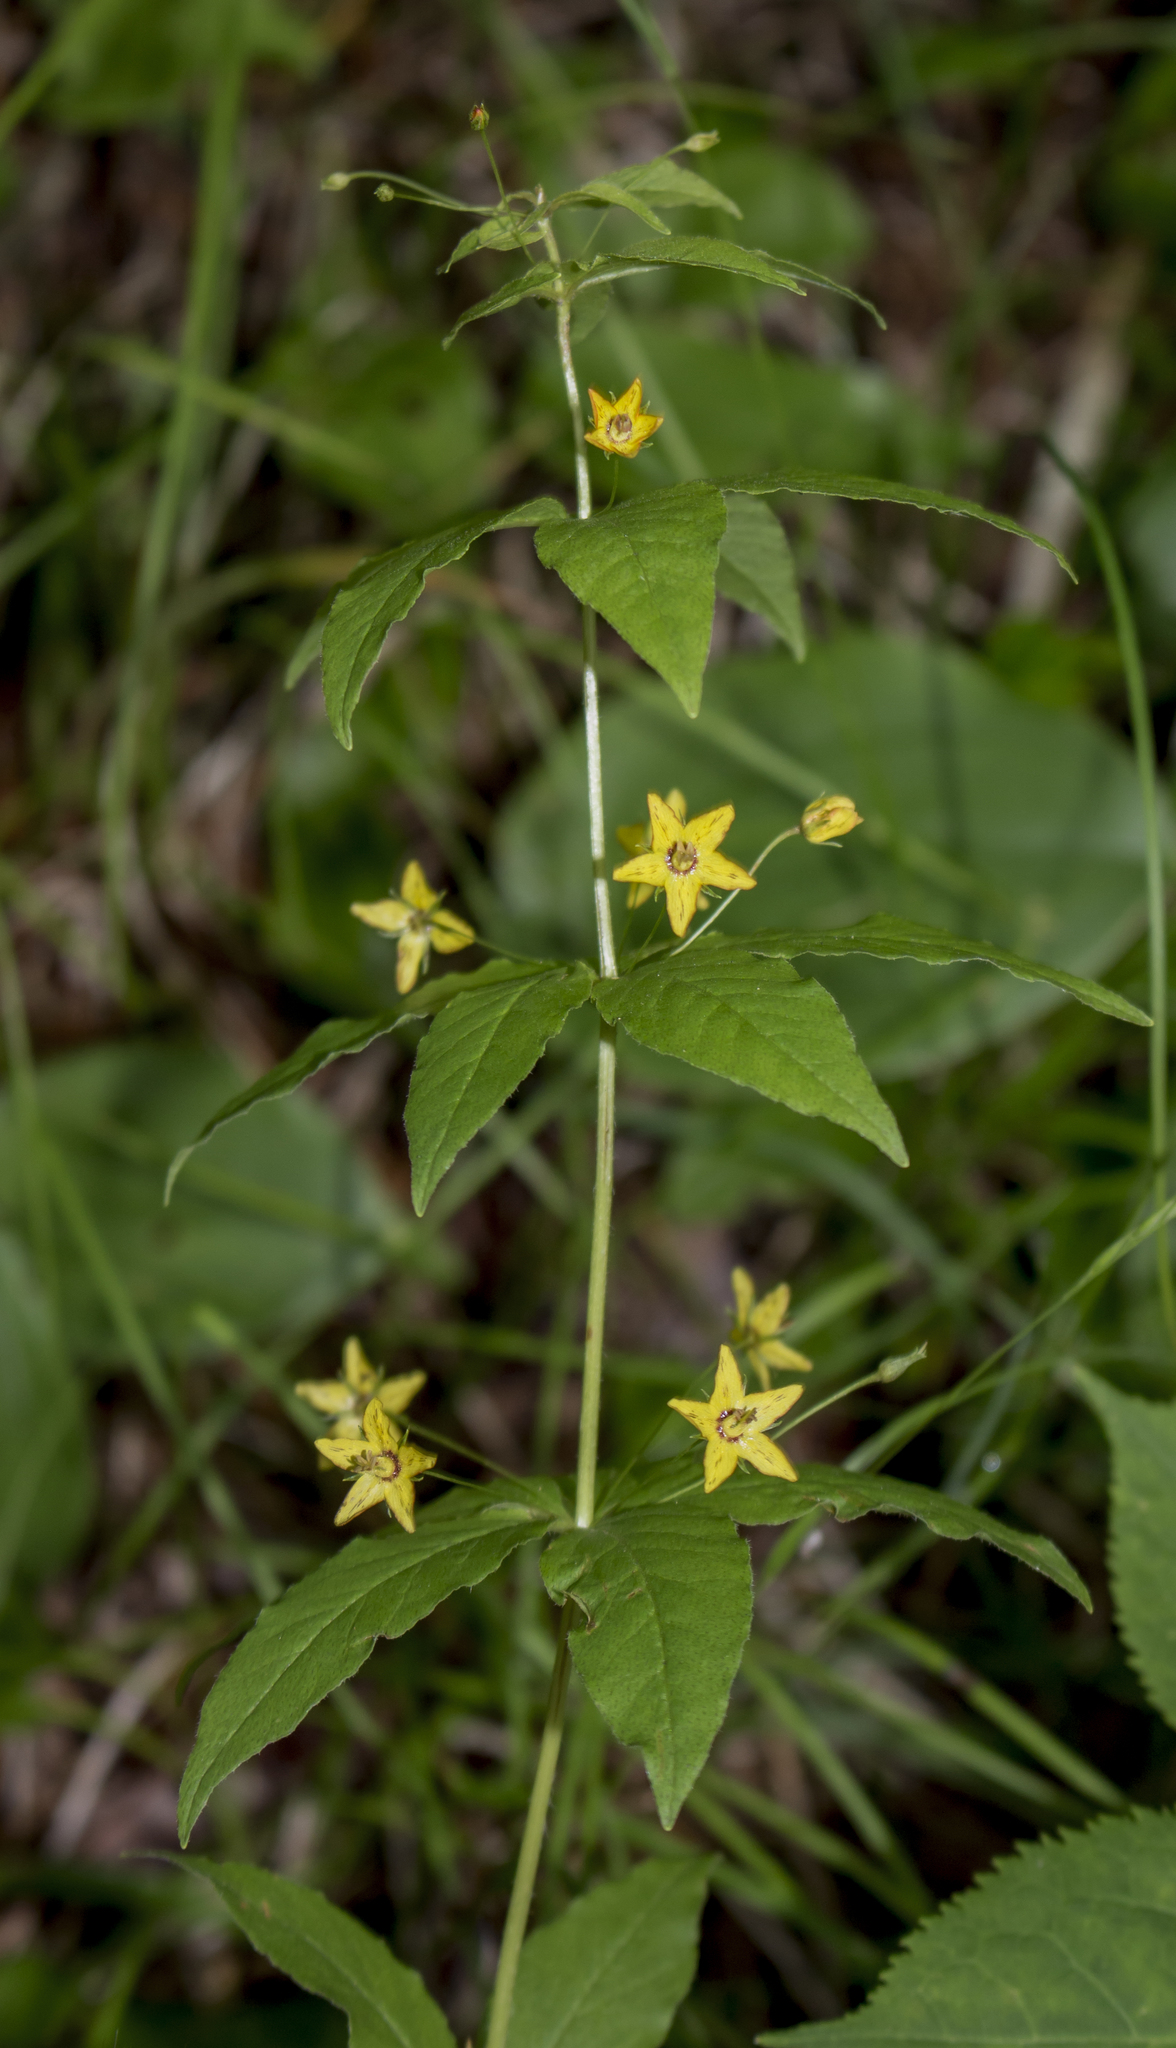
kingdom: Plantae
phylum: Tracheophyta
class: Magnoliopsida
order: Ericales
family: Primulaceae
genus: Lysimachia
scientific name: Lysimachia quadrifolia
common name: Whorled loosestrife
